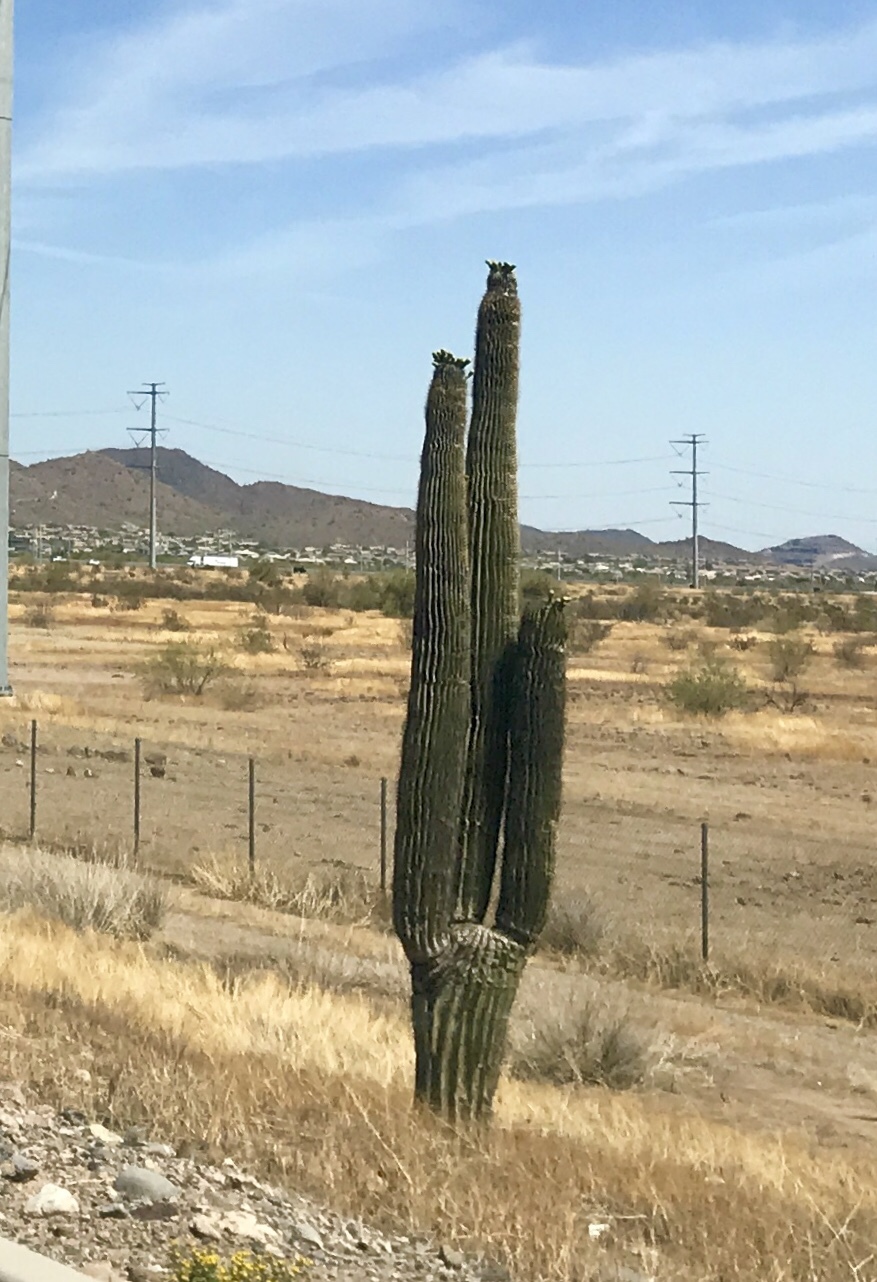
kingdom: Plantae
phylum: Tracheophyta
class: Magnoliopsida
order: Caryophyllales
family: Cactaceae
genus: Carnegiea
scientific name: Carnegiea gigantea
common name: Saguaro
